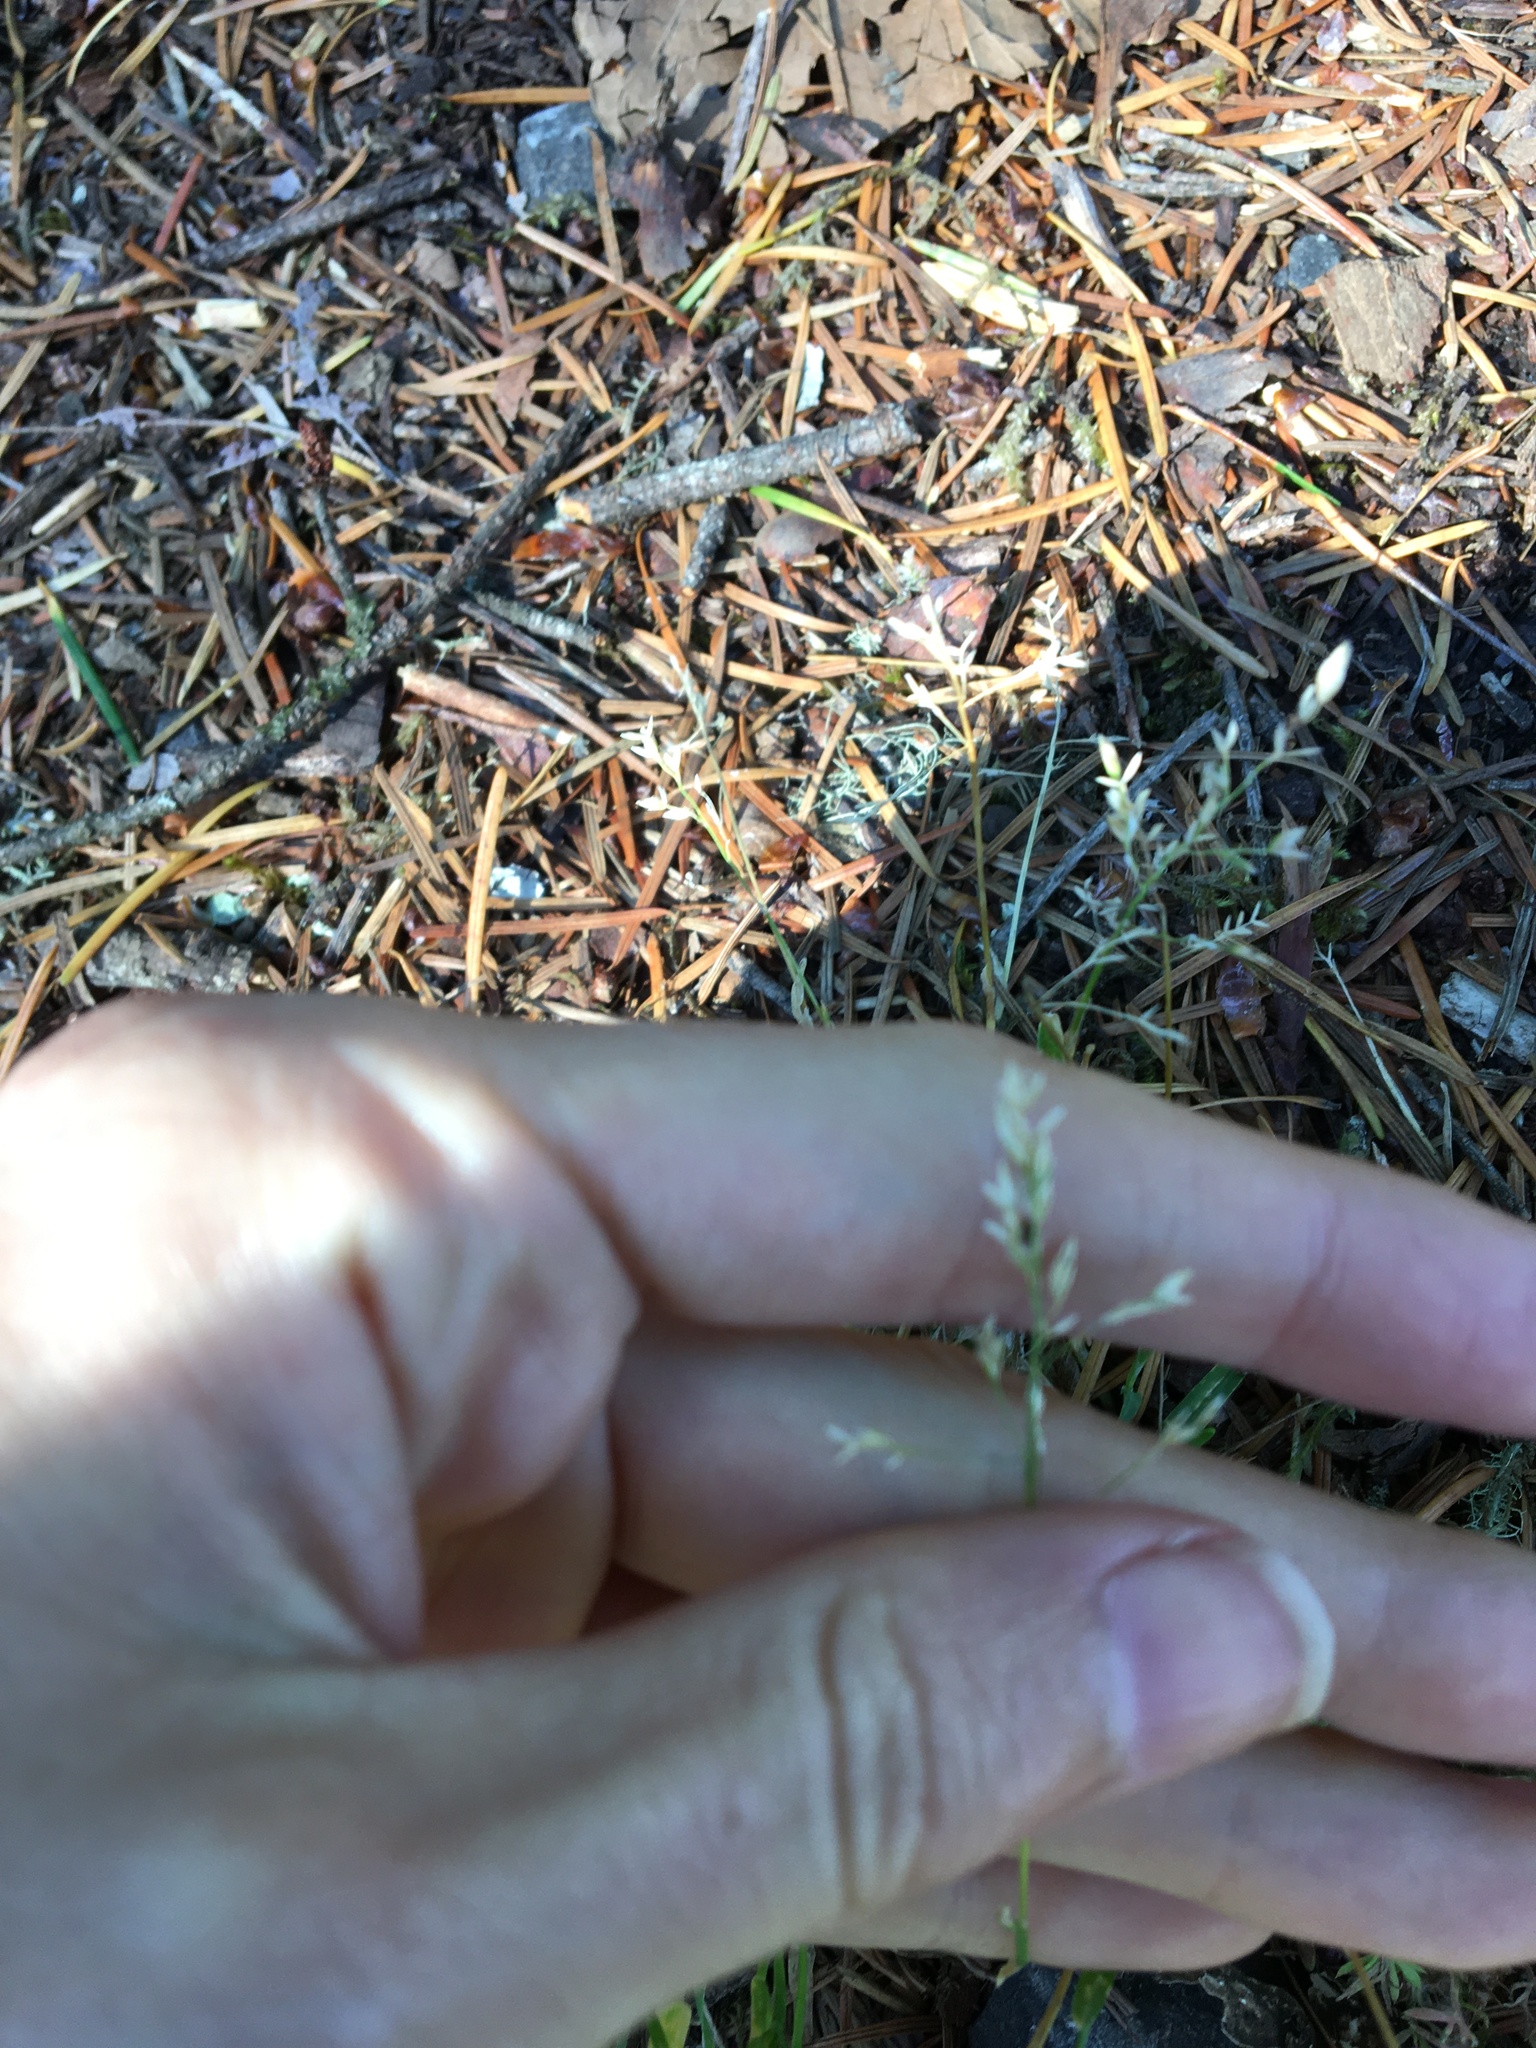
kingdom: Plantae
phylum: Tracheophyta
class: Liliopsida
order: Poales
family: Poaceae
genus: Poa
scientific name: Poa annua
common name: Annual bluegrass
